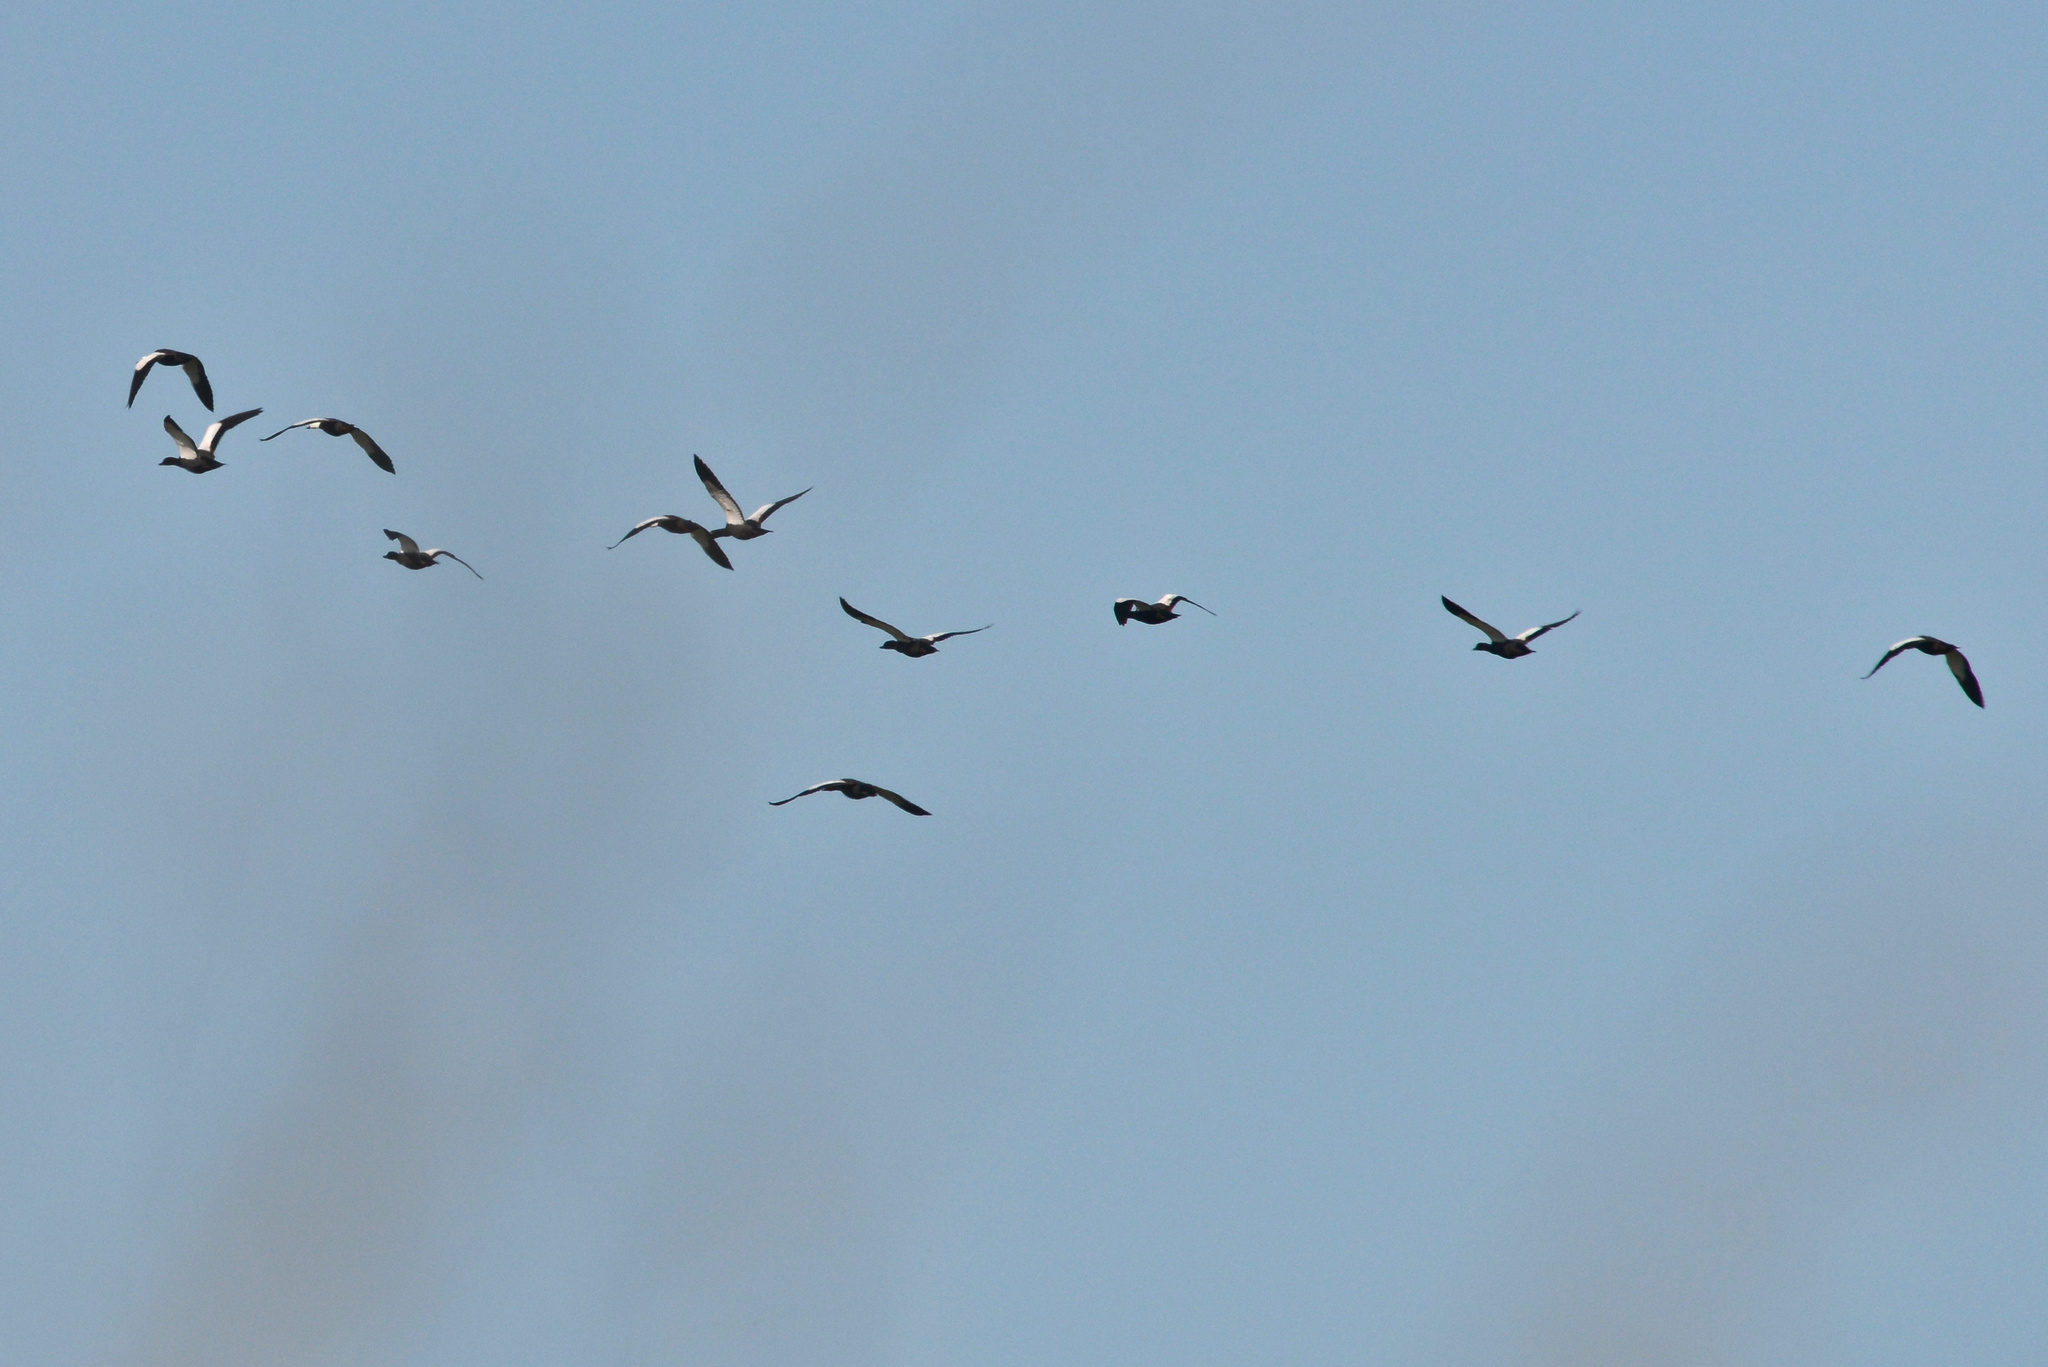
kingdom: Animalia
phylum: Chordata
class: Aves
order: Anseriformes
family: Anatidae
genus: Tadorna
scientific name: Tadorna variegata
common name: Paradise shelduck
